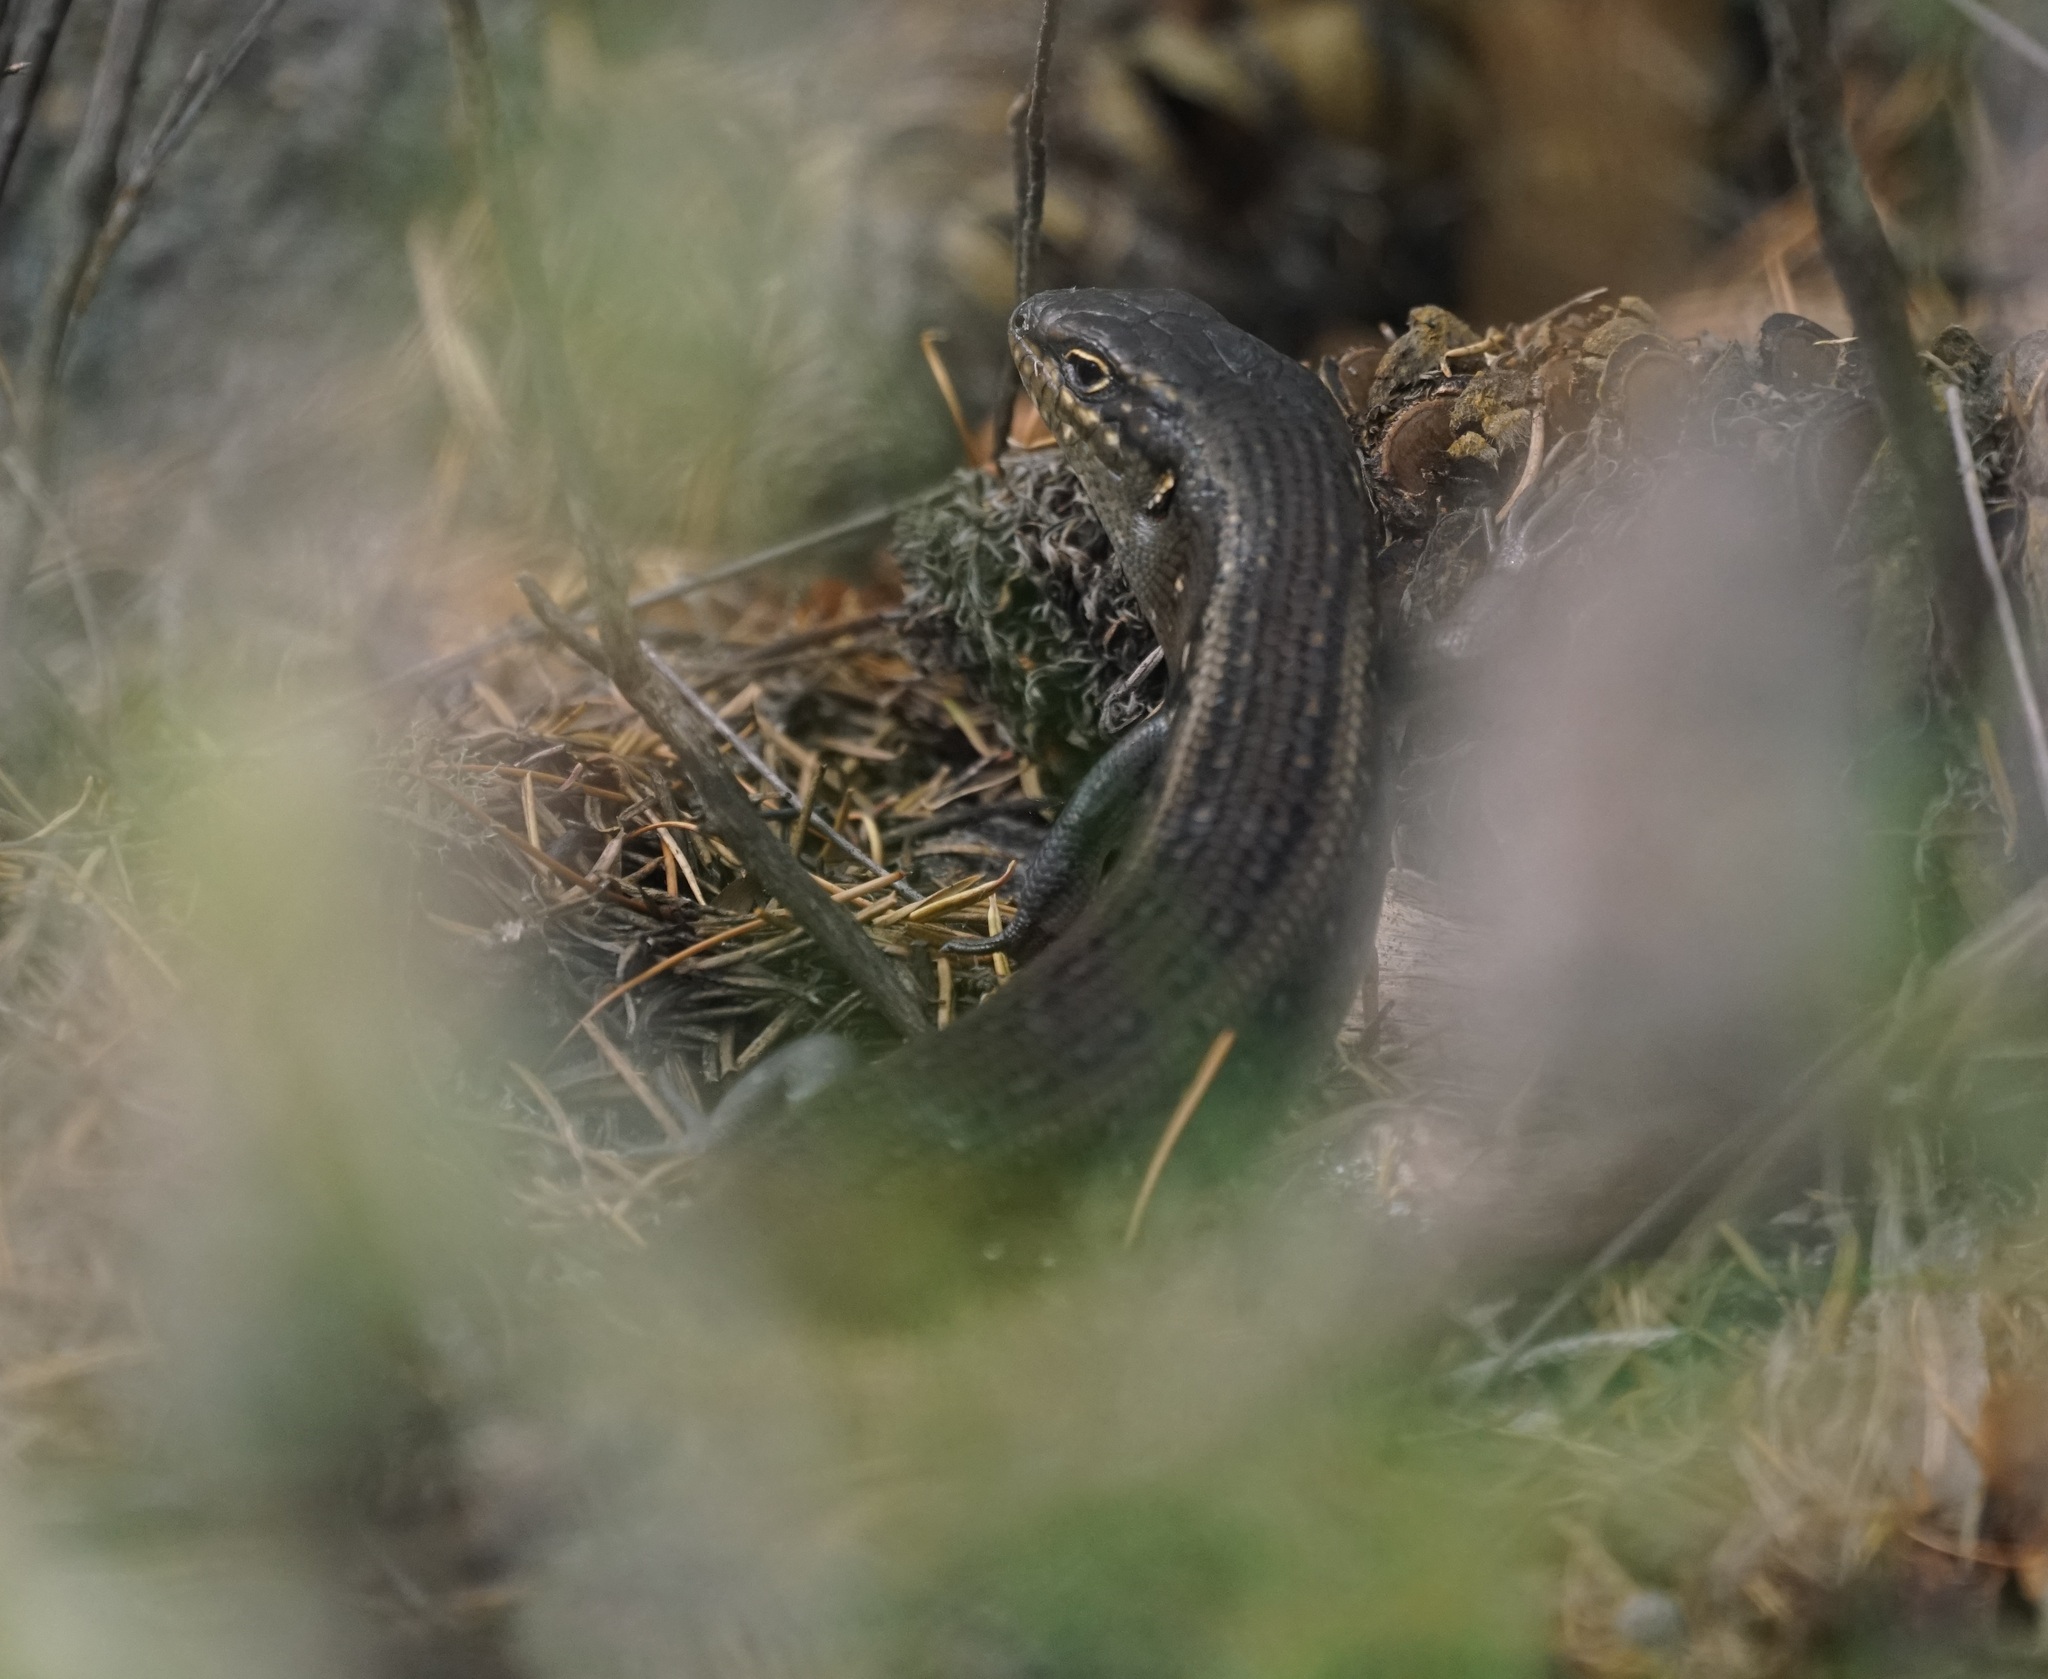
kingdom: Animalia
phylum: Chordata
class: Squamata
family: Scincidae
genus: Liopholis
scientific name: Liopholis whitii
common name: White's rock-skink
